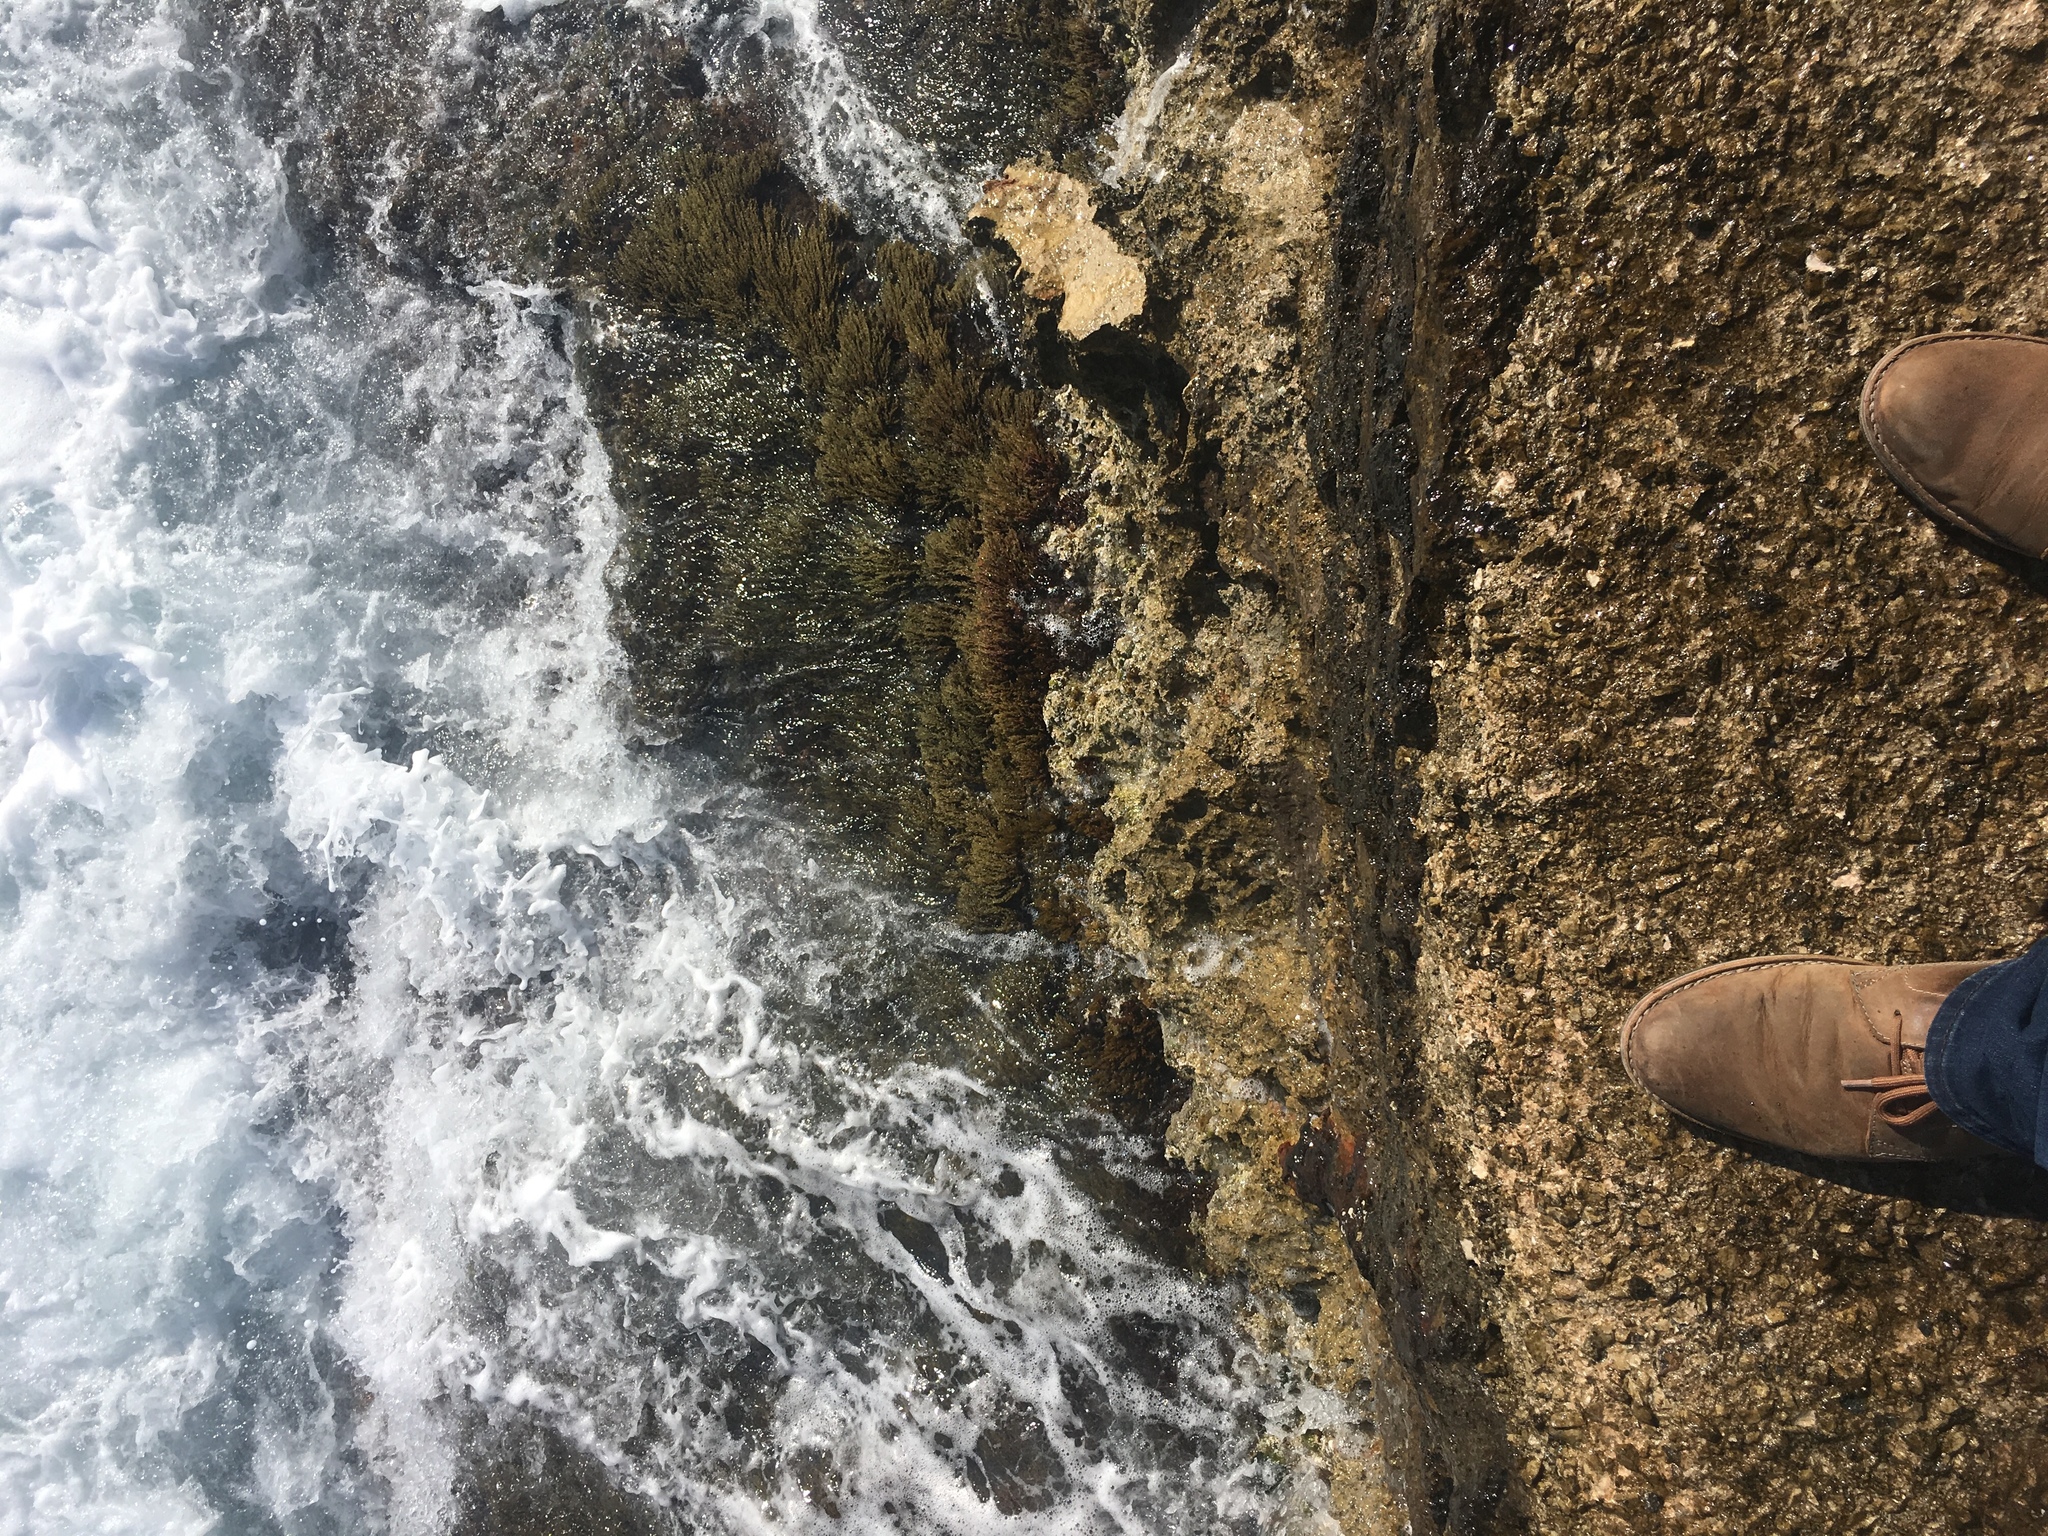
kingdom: Chromista
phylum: Ochrophyta
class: Phaeophyceae
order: Fucales
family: Sargassaceae
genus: Cystoseira
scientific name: Cystoseira Ericaria amentacea
